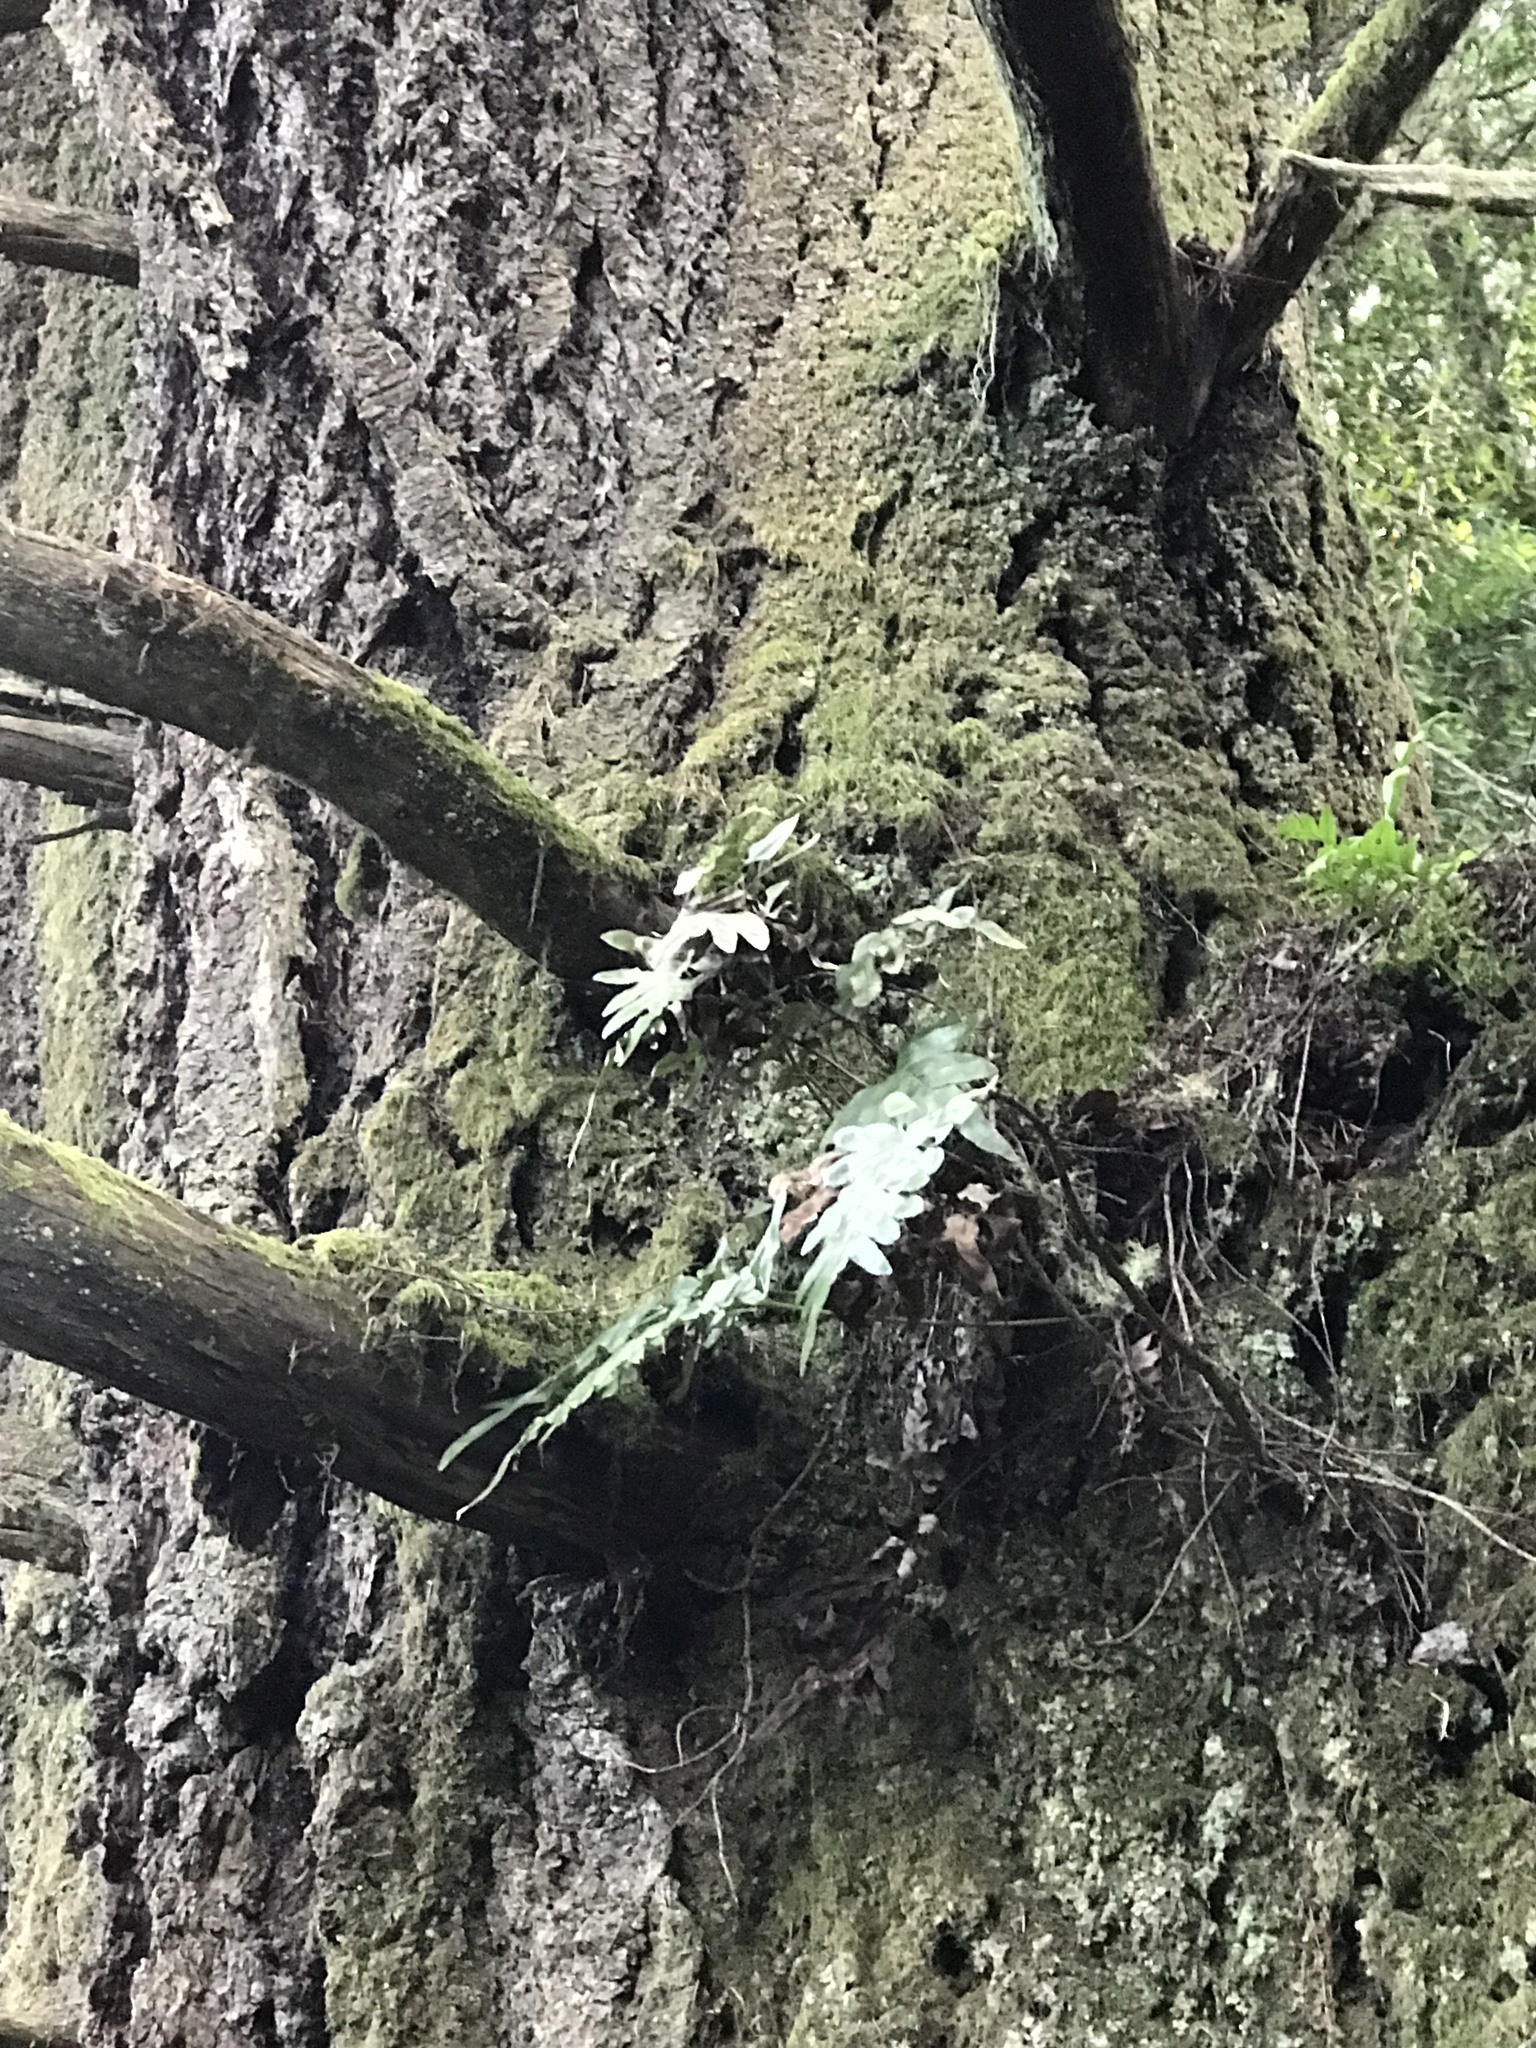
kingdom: Plantae
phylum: Tracheophyta
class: Polypodiopsida
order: Polypodiales
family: Polypodiaceae
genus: Polypodium
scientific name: Polypodium scouleri
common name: Scouler's polypody
